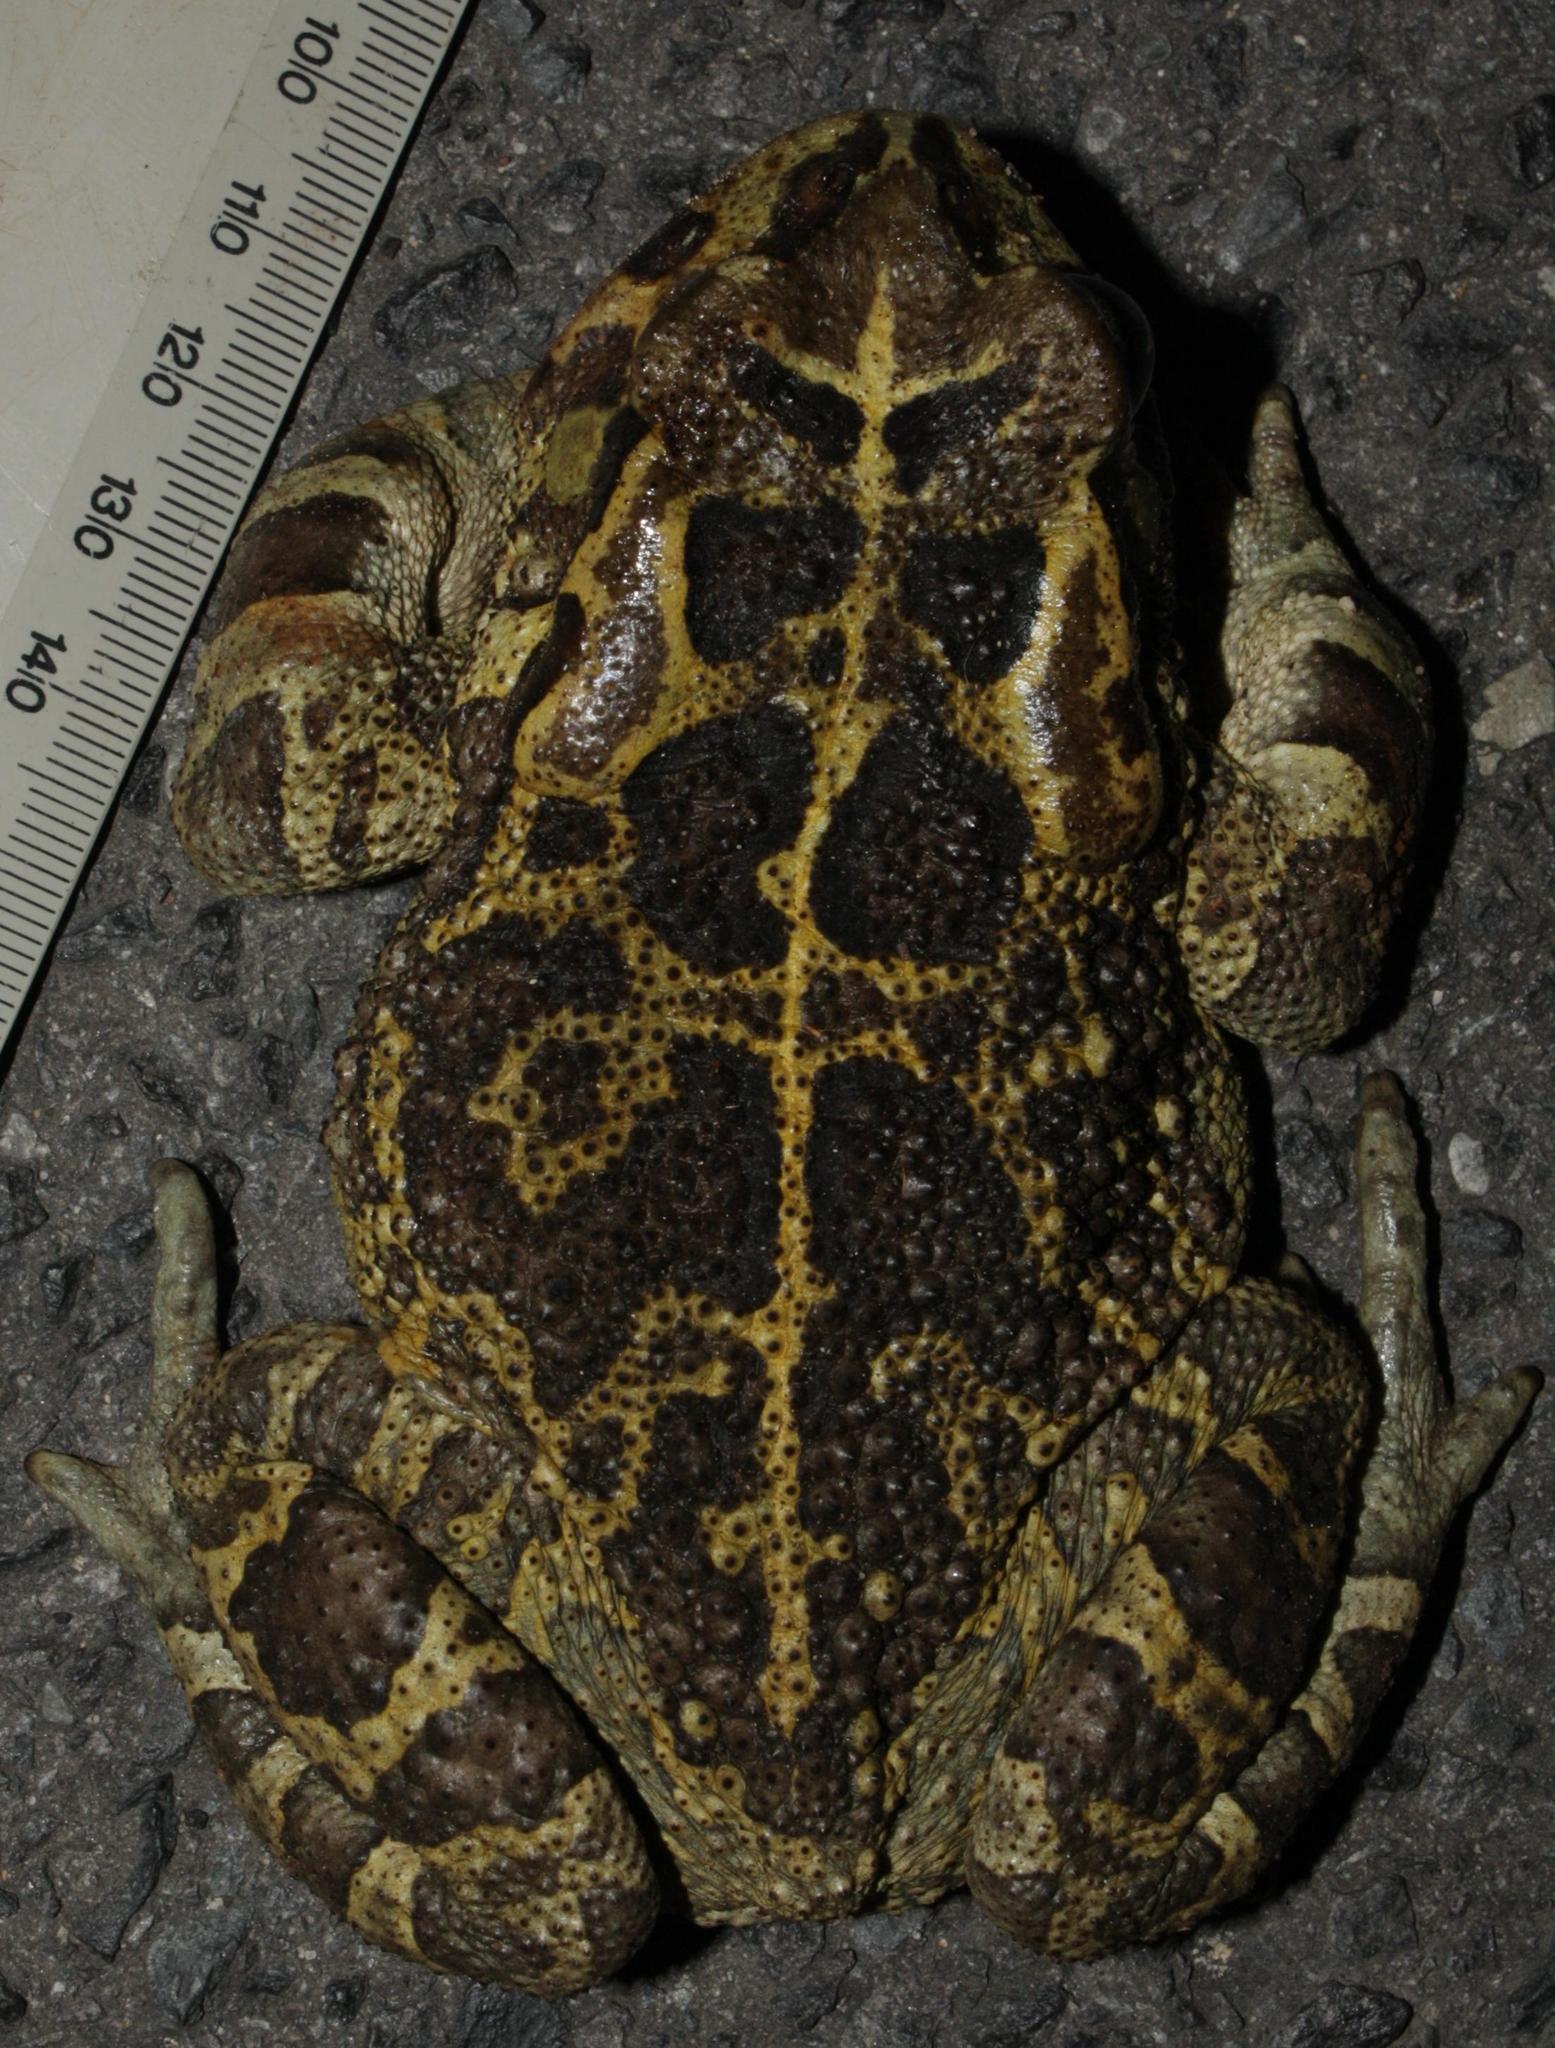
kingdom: Animalia
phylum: Chordata
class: Amphibia
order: Anura
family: Bufonidae
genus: Sclerophrys
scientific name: Sclerophrys pantherina
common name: Panther toad
